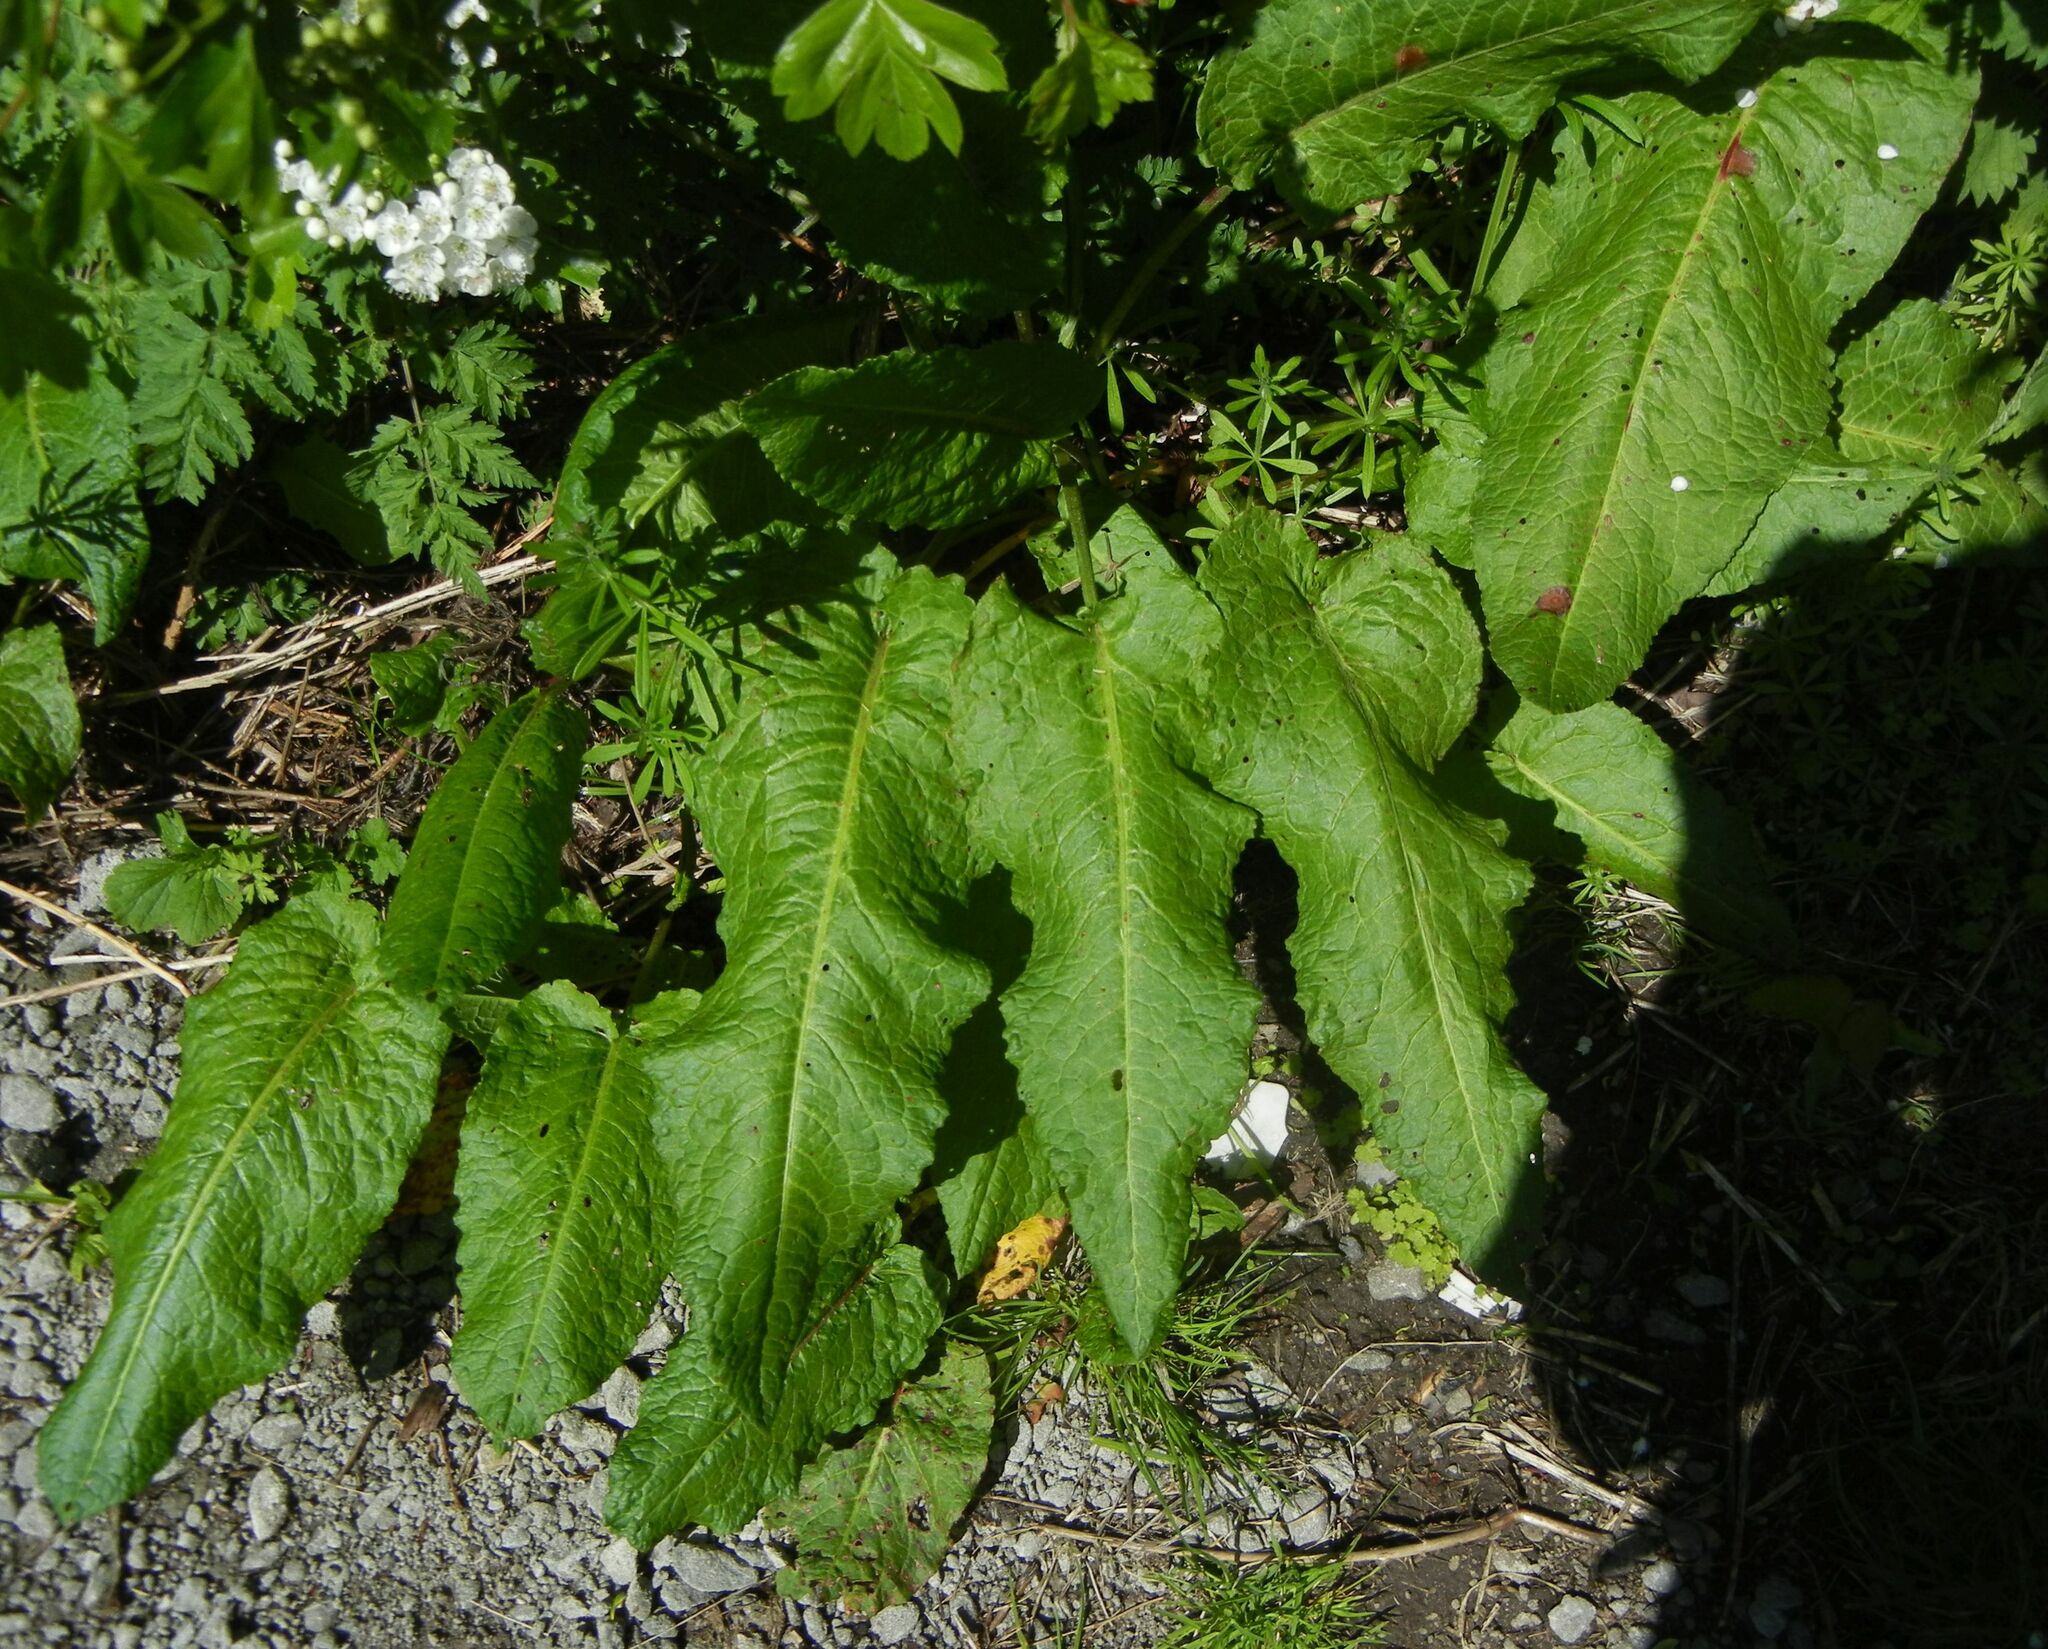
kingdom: Plantae
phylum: Tracheophyta
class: Magnoliopsida
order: Caryophyllales
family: Polygonaceae
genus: Rumex
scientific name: Rumex obtusifolius
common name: Bitter dock
